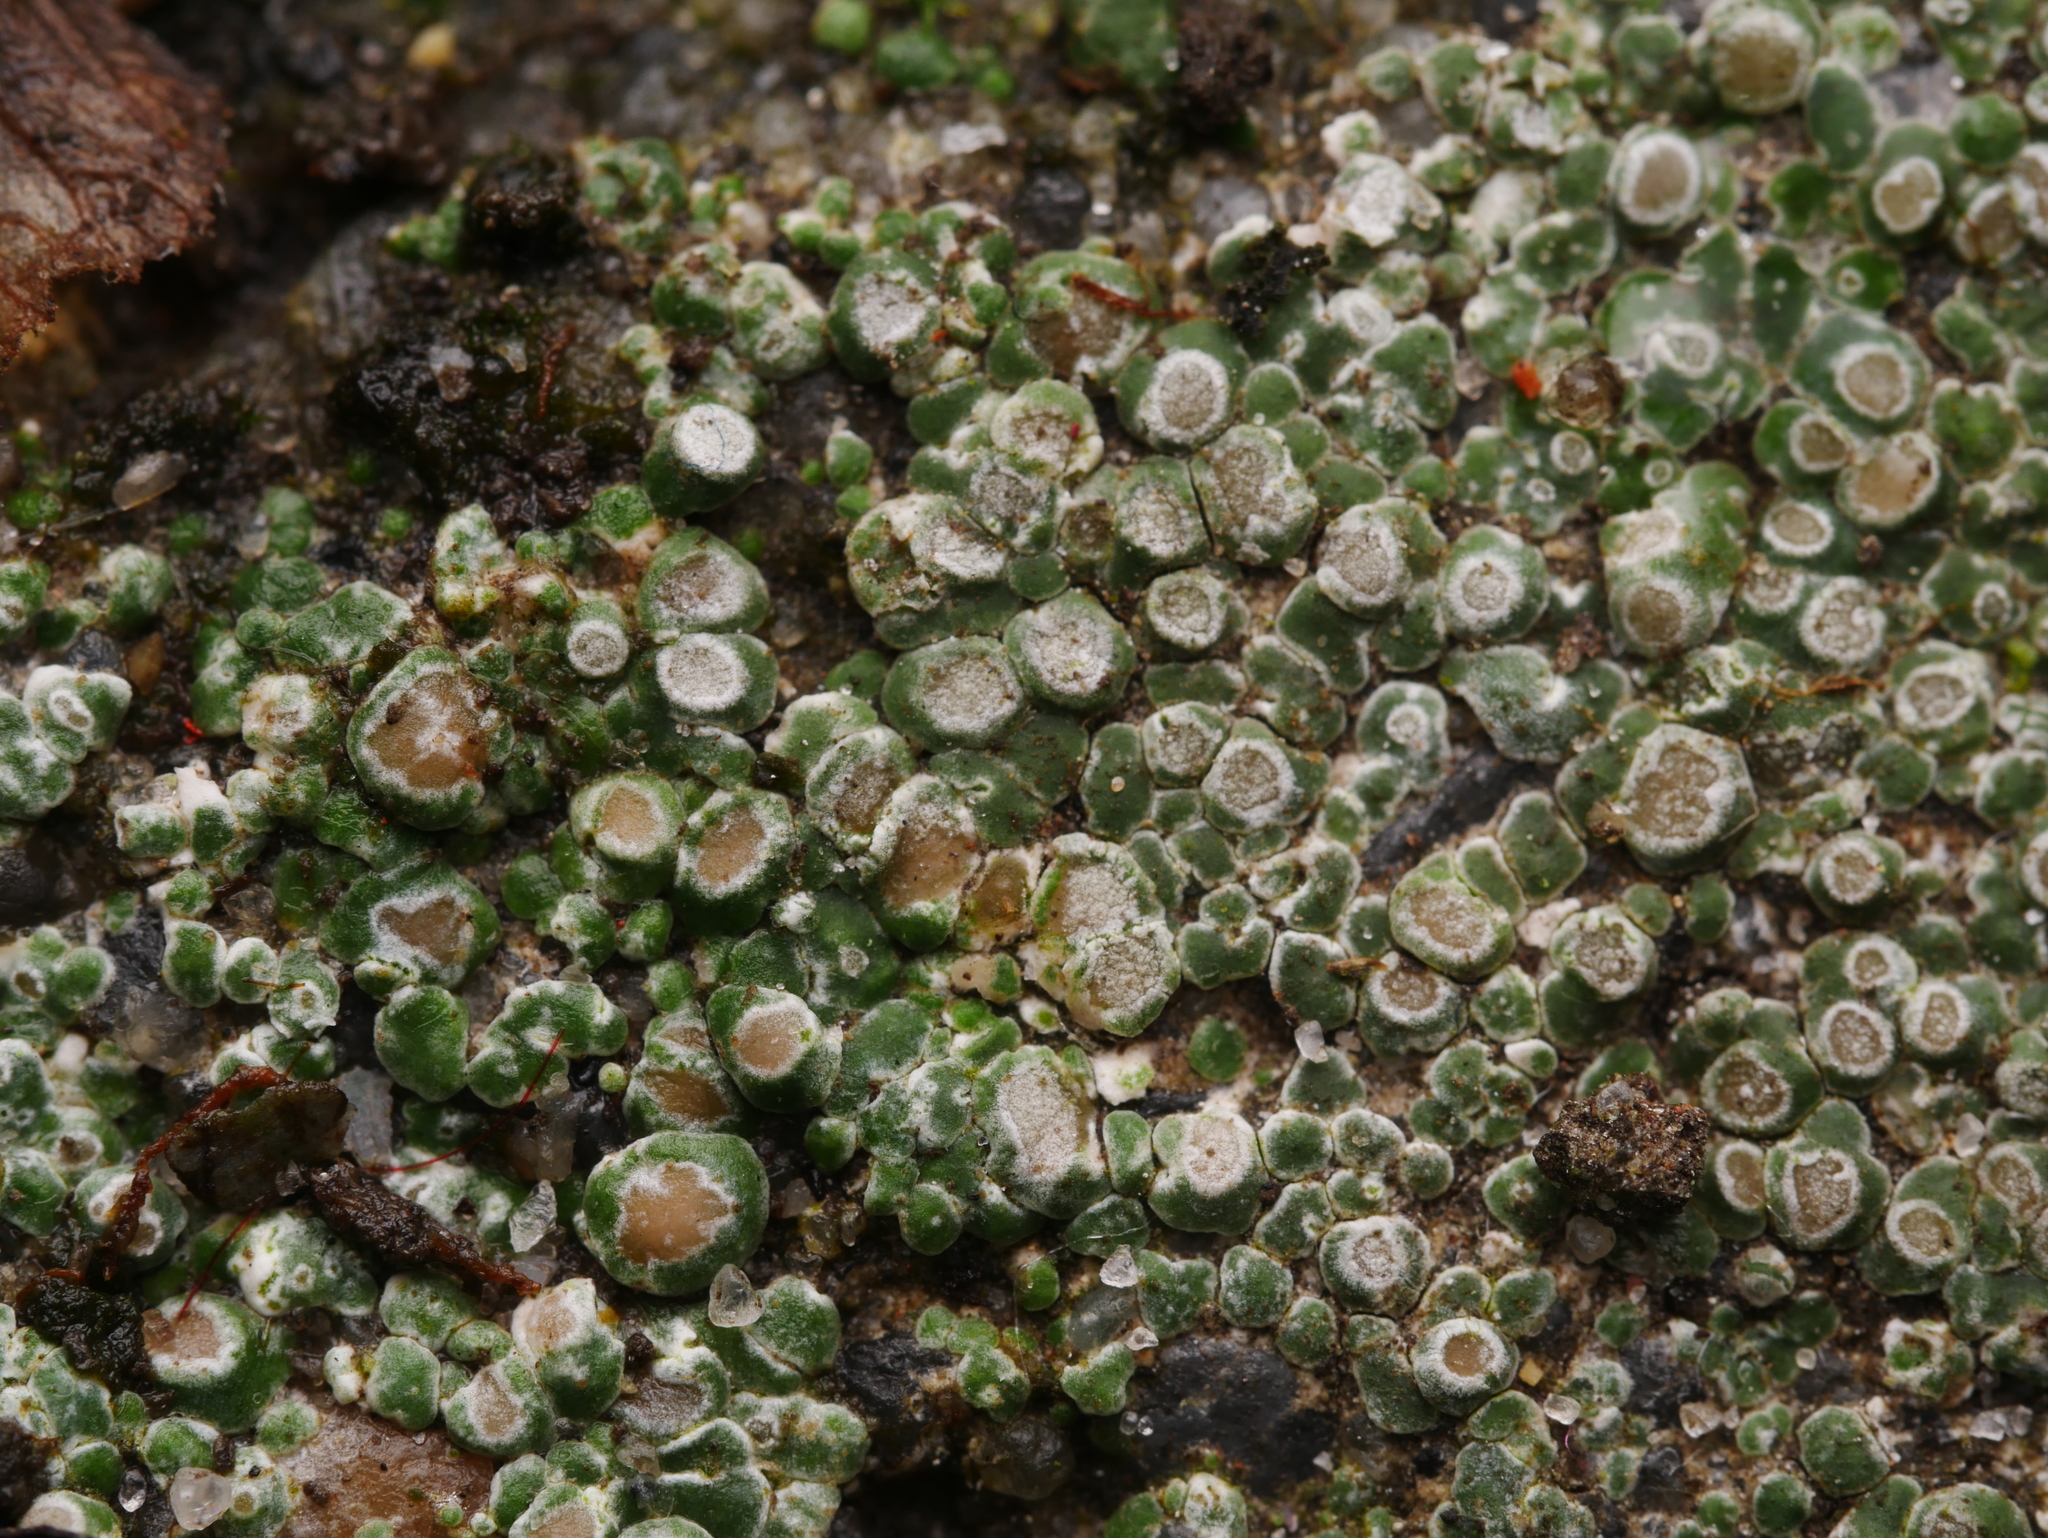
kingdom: Fungi
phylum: Ascomycota
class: Lecanoromycetes
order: Pertusariales
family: Megasporaceae
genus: Circinaria
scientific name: Circinaria contorta
